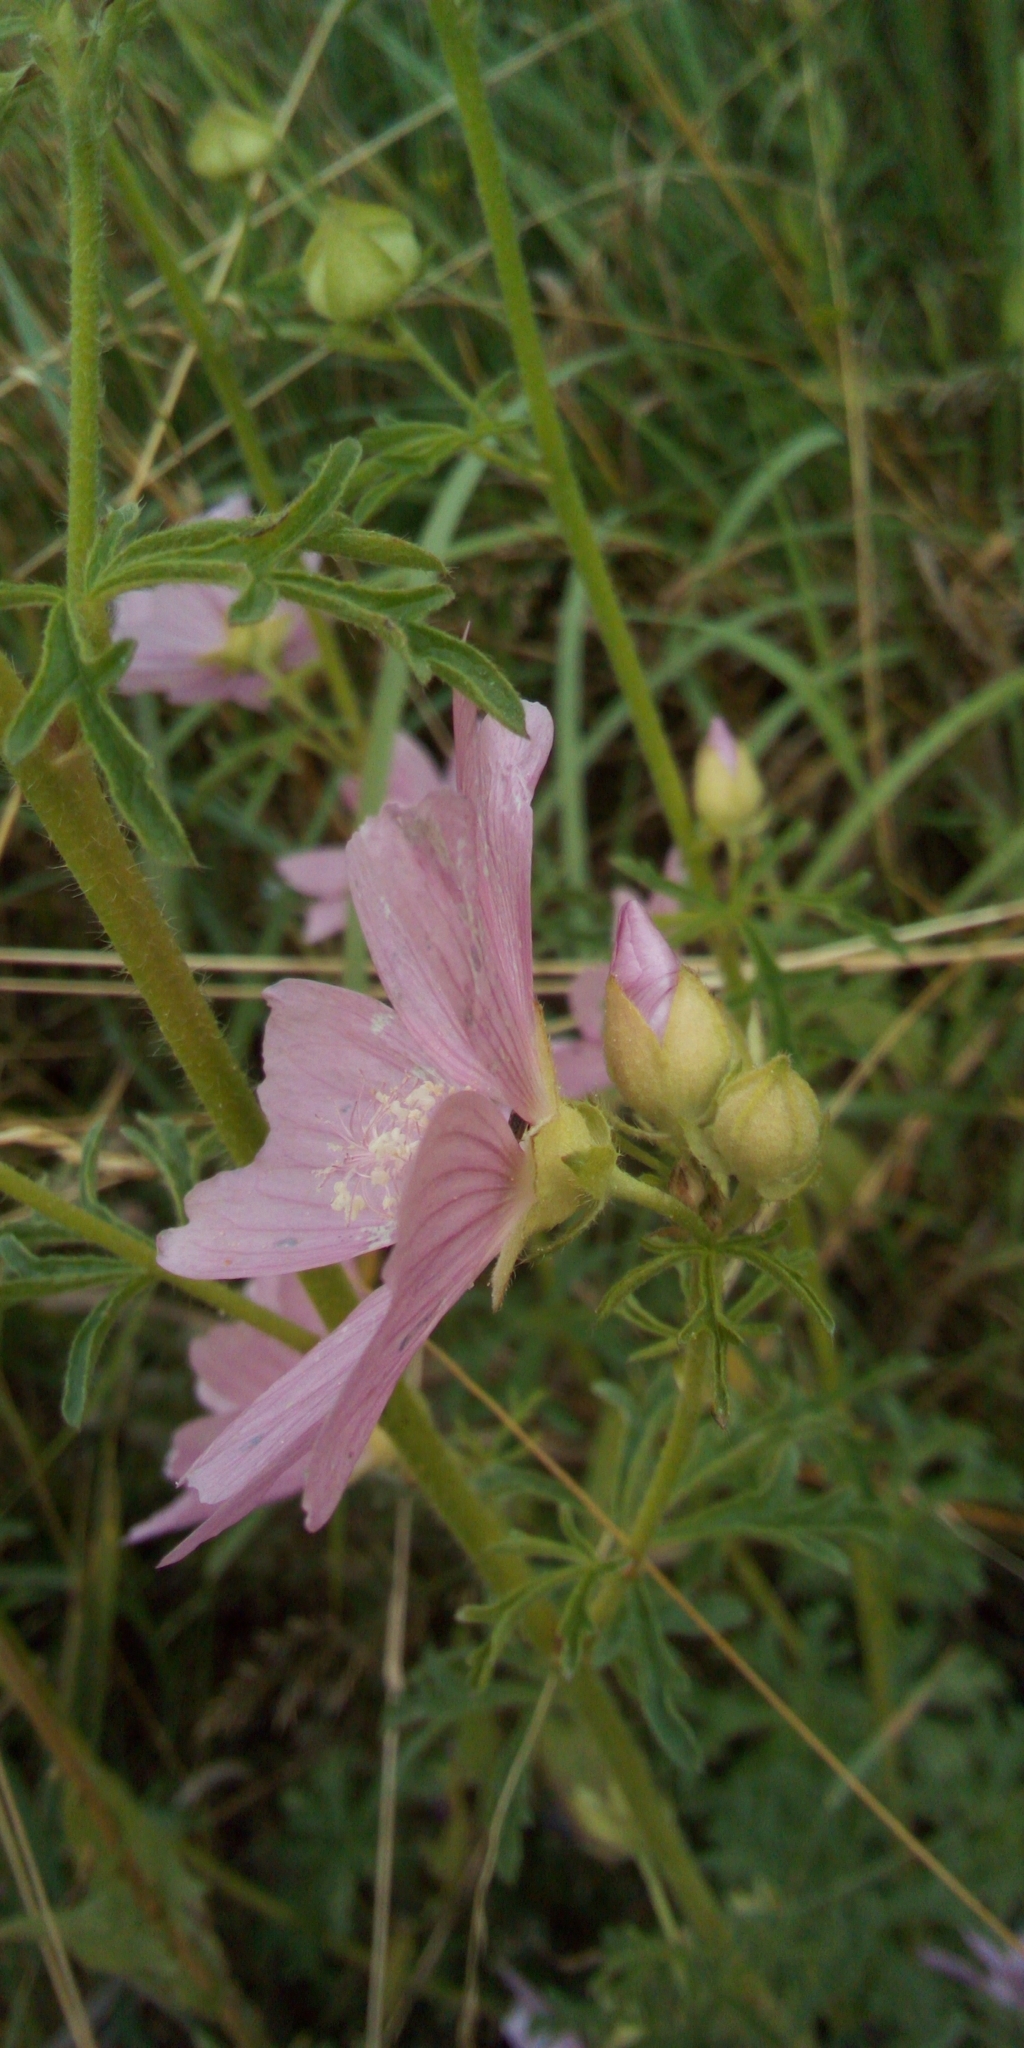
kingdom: Plantae
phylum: Tracheophyta
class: Magnoliopsida
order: Malvales
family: Malvaceae
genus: Malva
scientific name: Malva alcea
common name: Greater musk-mallow
